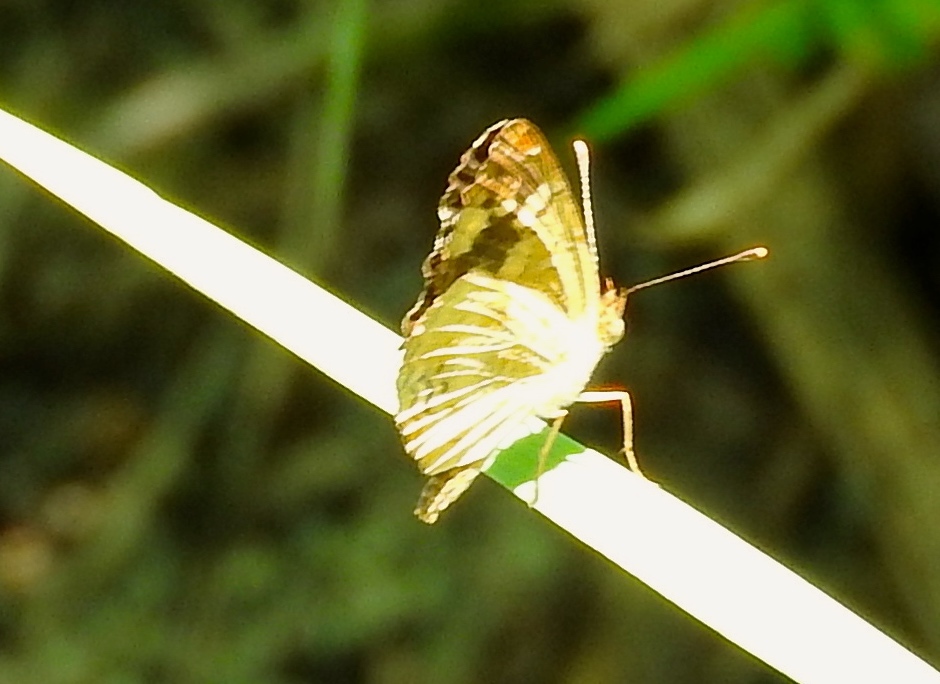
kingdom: Animalia
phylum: Arthropoda
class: Insecta
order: Lepidoptera
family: Nymphalidae
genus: Anthanassa
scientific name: Anthanassa tulcis
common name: Pale-banded crescent
